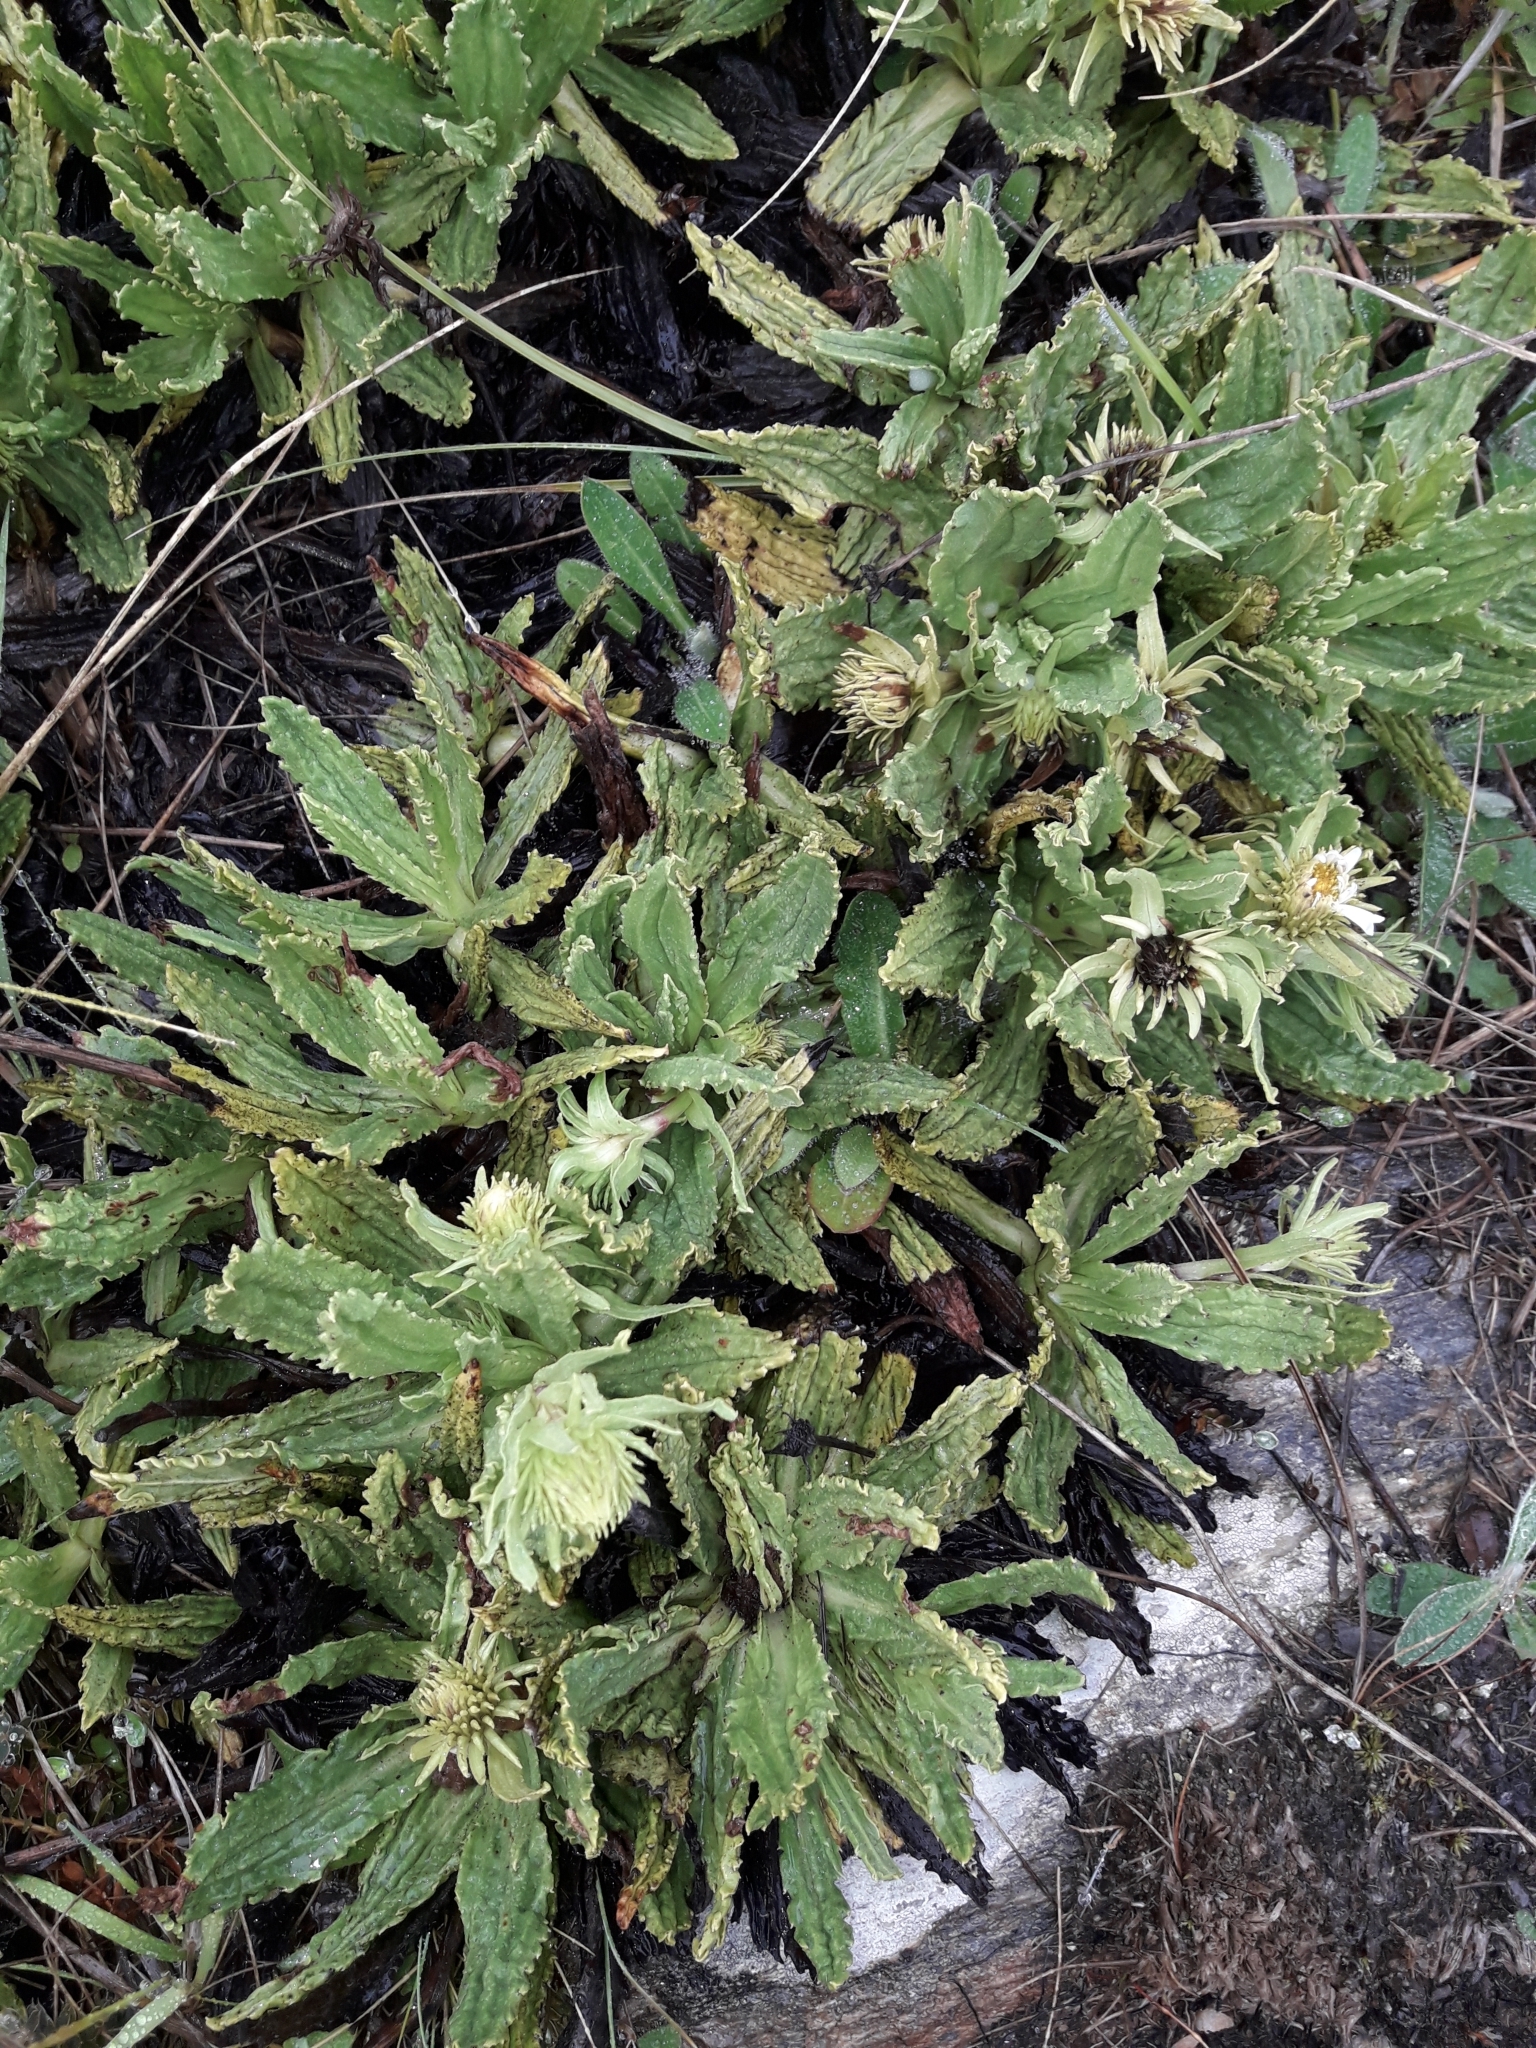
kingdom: Plantae
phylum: Tracheophyta
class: Magnoliopsida
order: Asterales
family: Asteraceae
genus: Celmisia
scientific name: Celmisia prorepens
